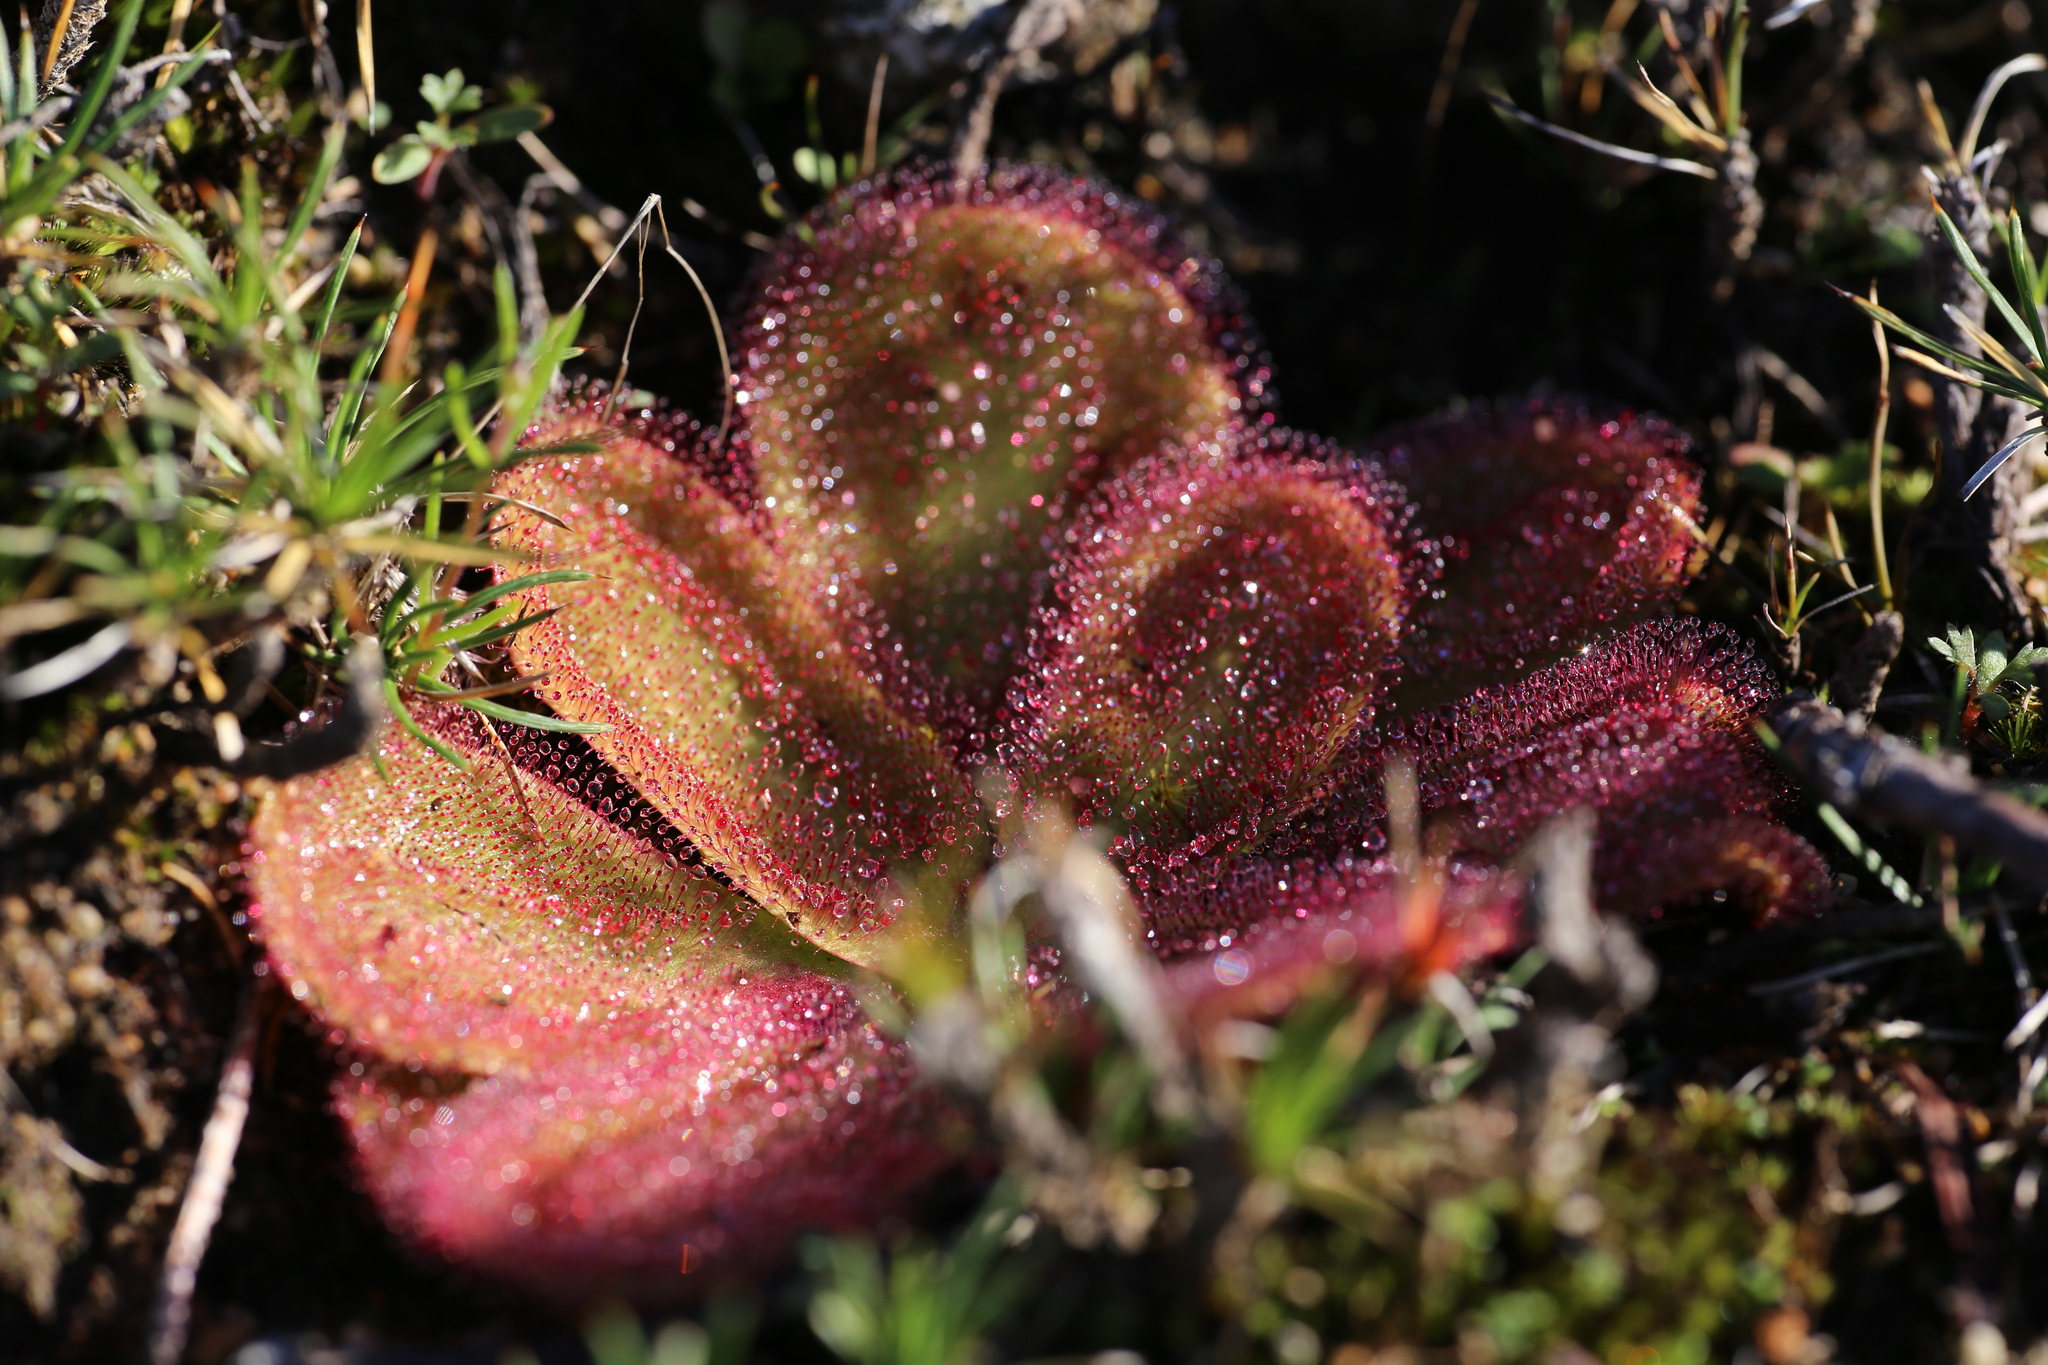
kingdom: Plantae
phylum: Tracheophyta
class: Magnoliopsida
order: Caryophyllales
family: Droseraceae
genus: Drosera
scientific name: Drosera erythrorhiza
